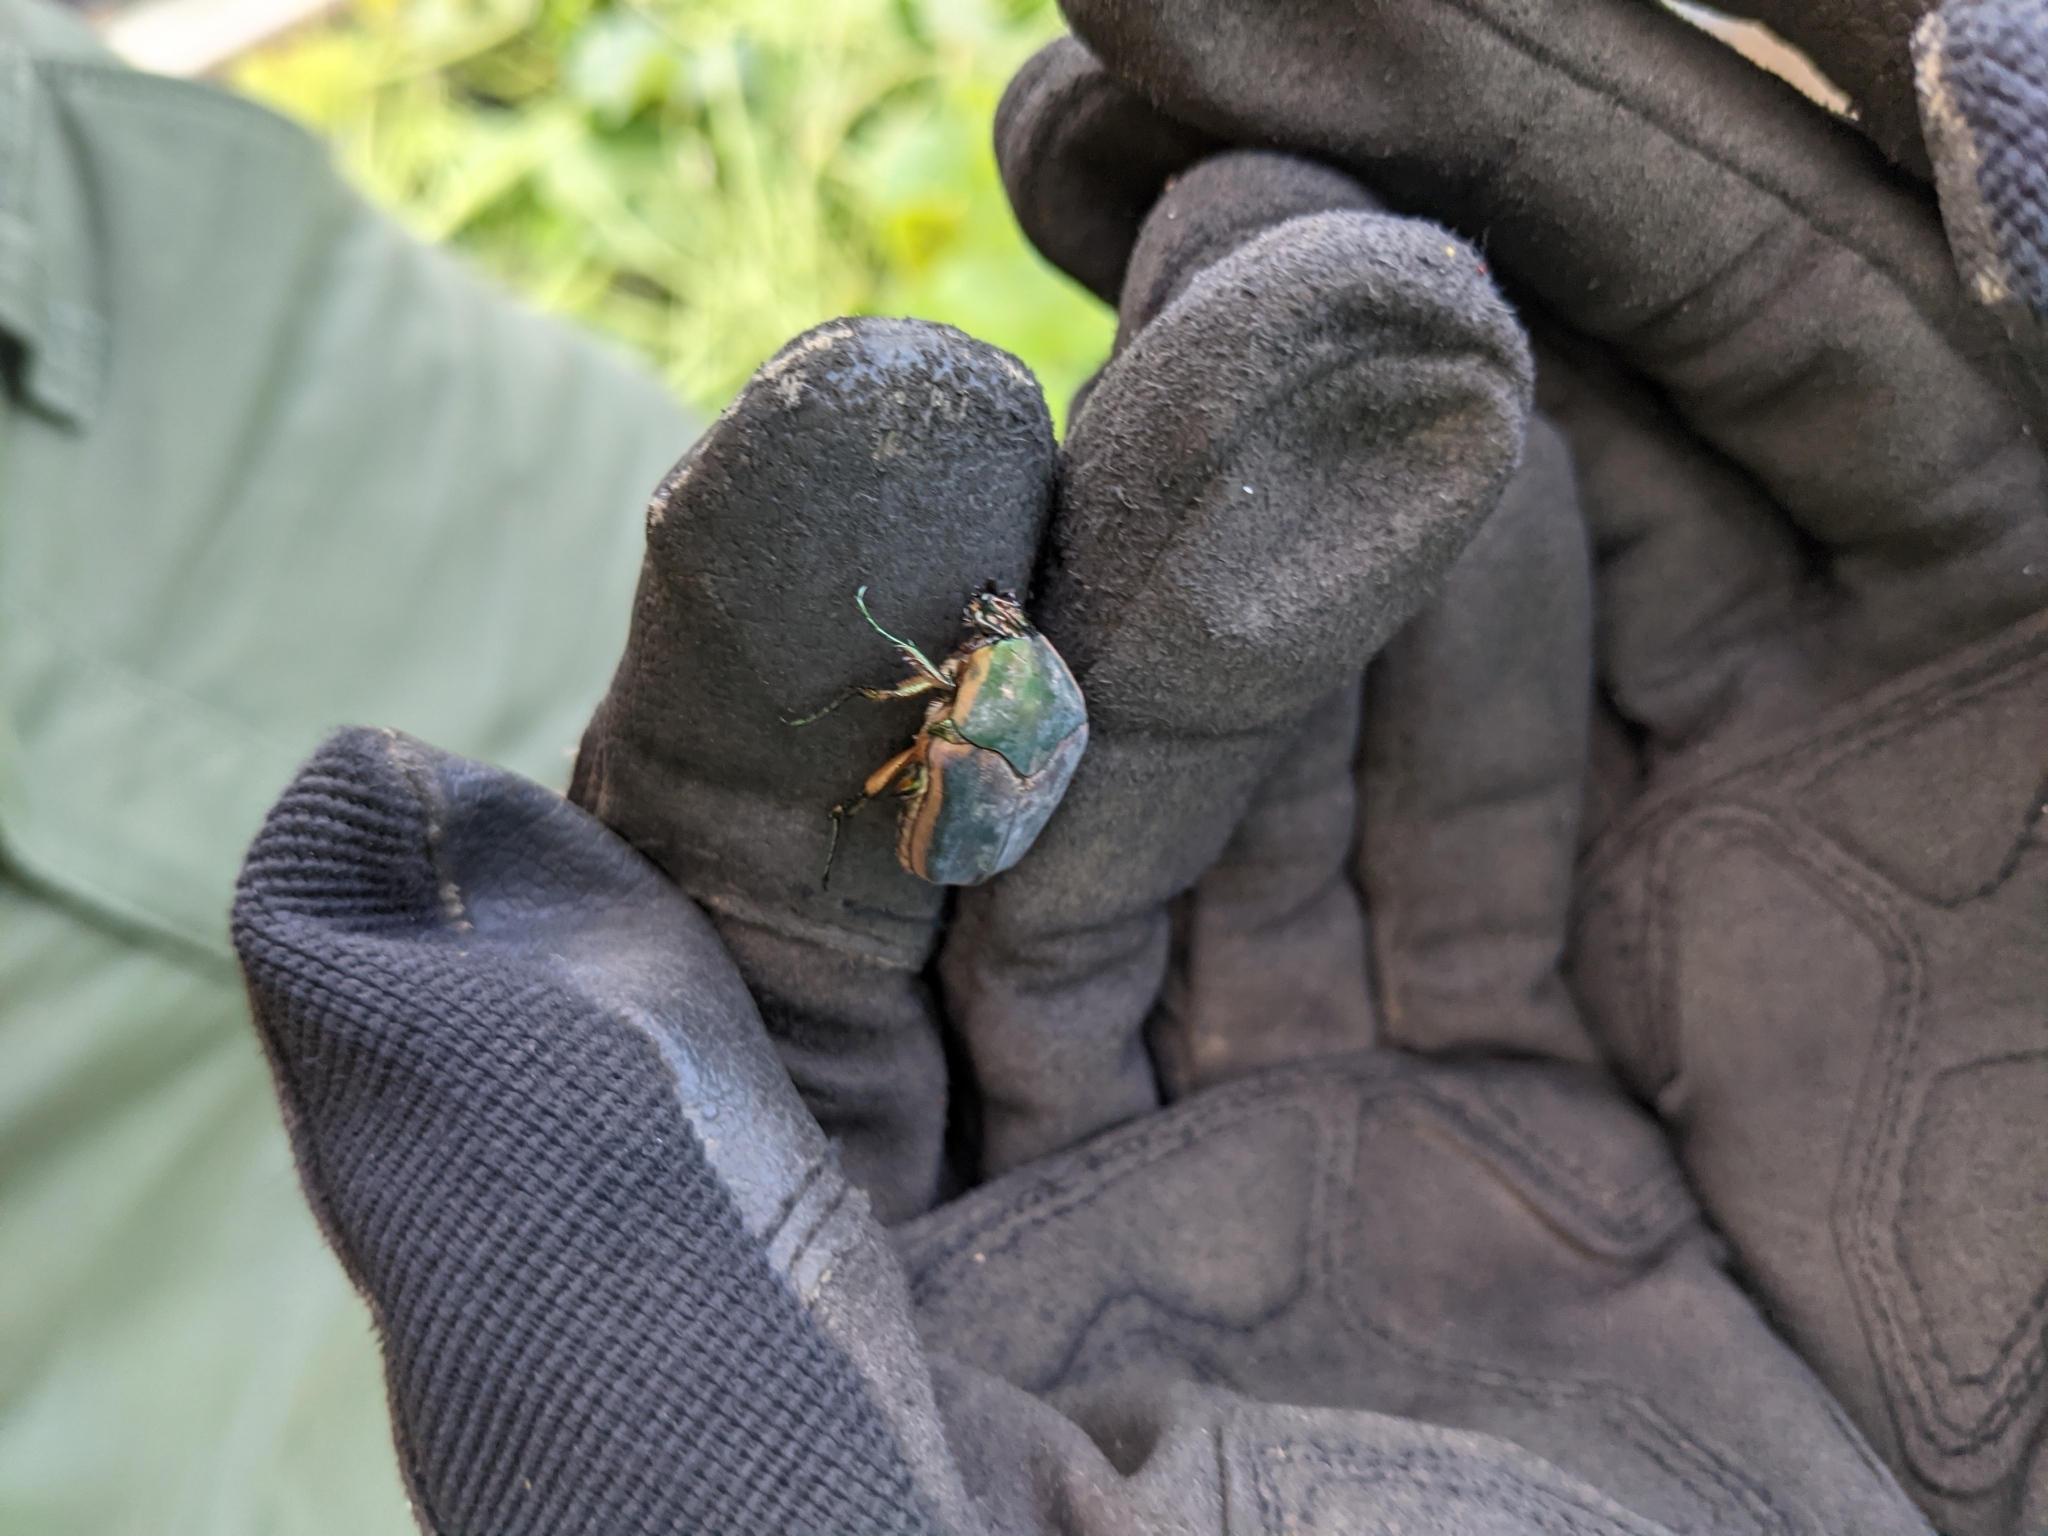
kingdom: Animalia
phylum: Arthropoda
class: Insecta
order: Coleoptera
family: Scarabaeidae
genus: Cotinis
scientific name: Cotinis nitida
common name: Common green june beetle
